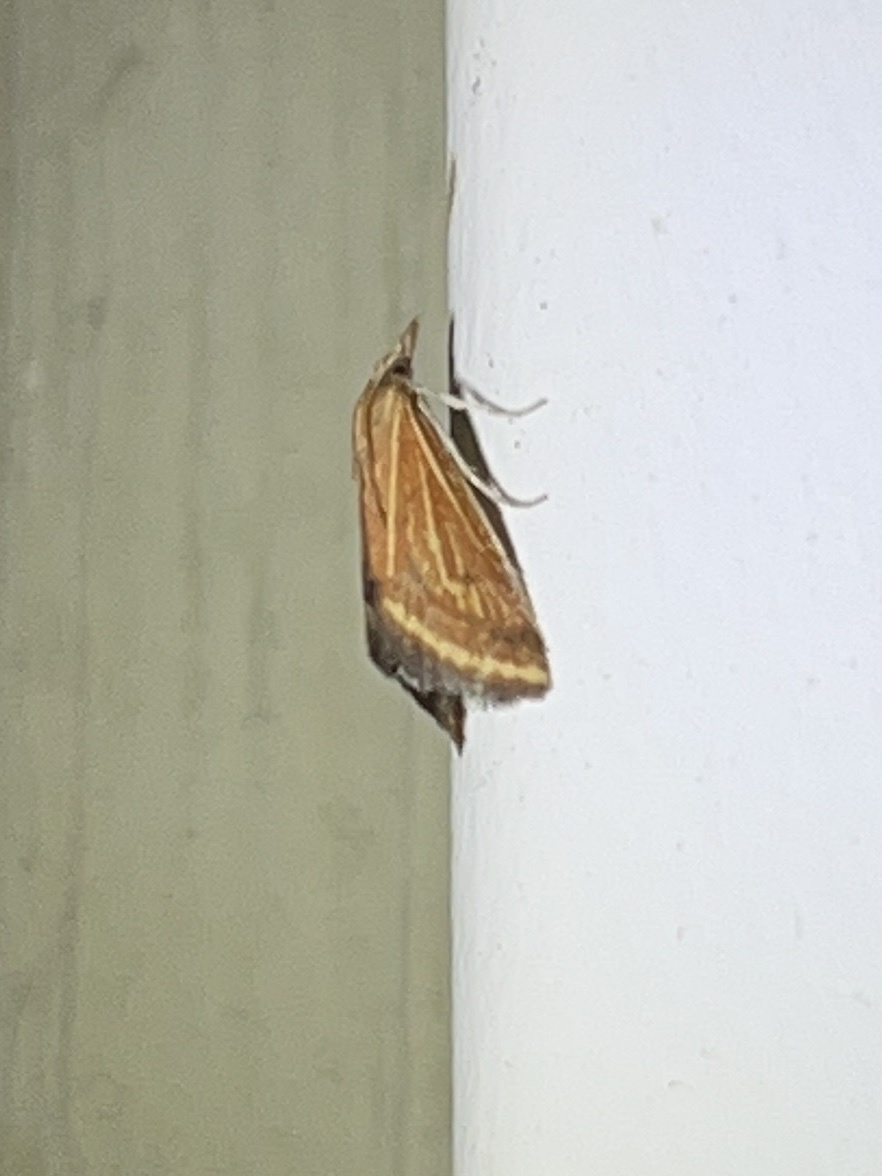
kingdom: Animalia
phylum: Arthropoda
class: Insecta
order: Lepidoptera
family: Crambidae
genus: Microtheoris
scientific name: Microtheoris ophionalis
